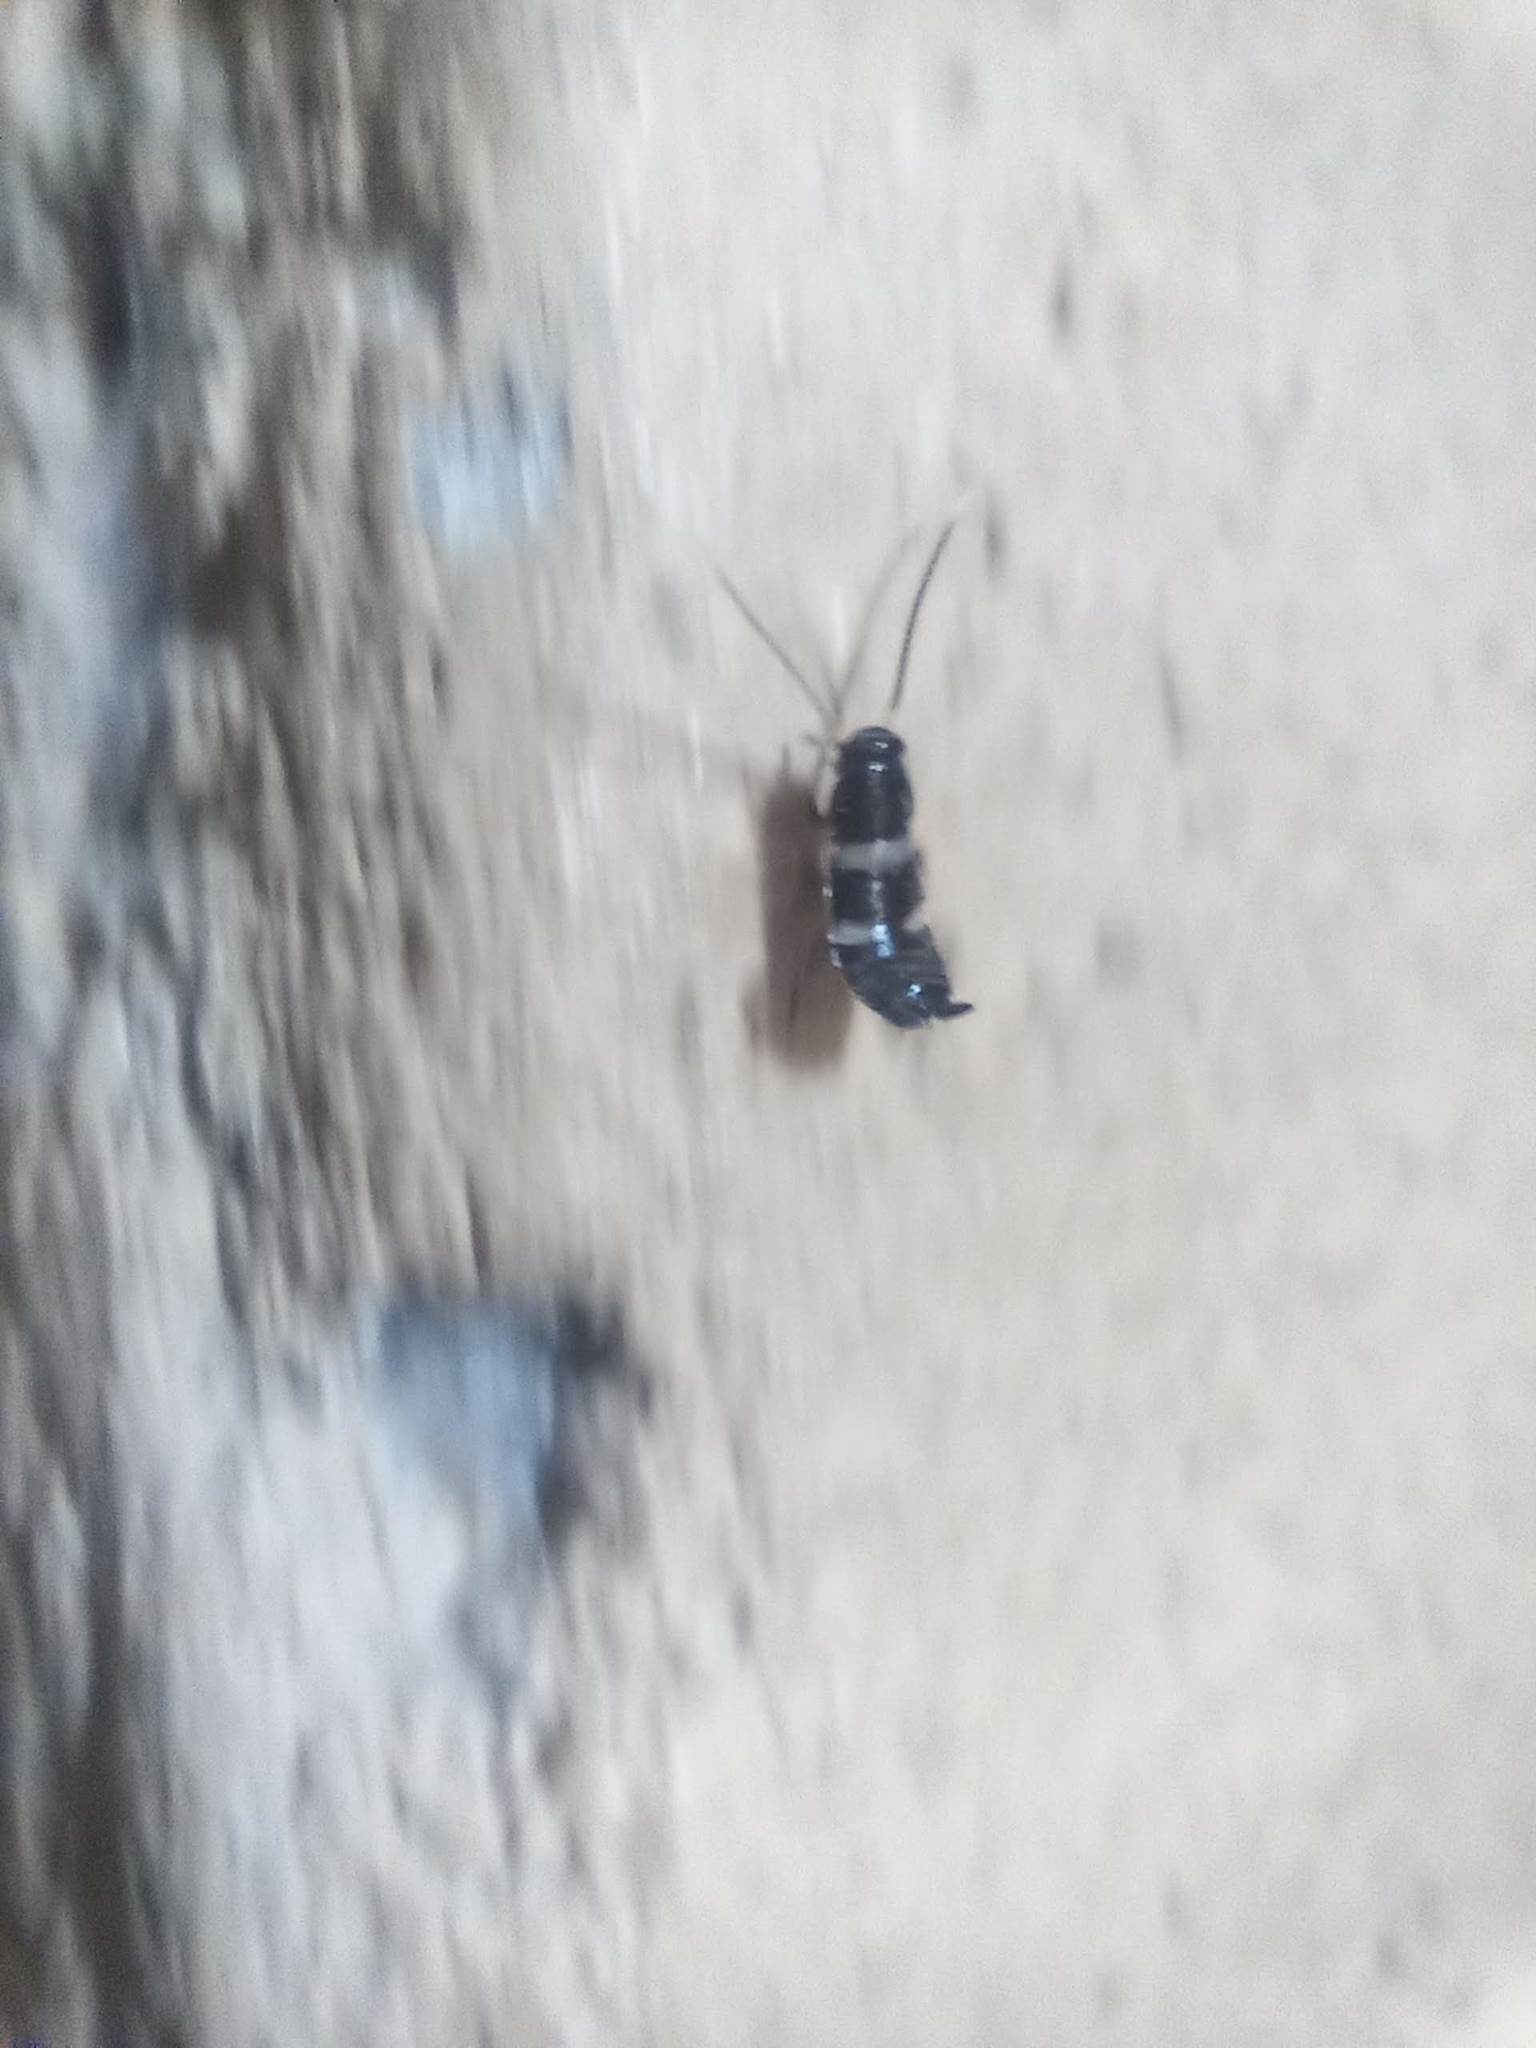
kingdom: Animalia
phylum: Arthropoda
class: Insecta
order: Blattodea
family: Blattidae
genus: Periplaneta
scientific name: Periplaneta australasiae
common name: Australian cockroach
